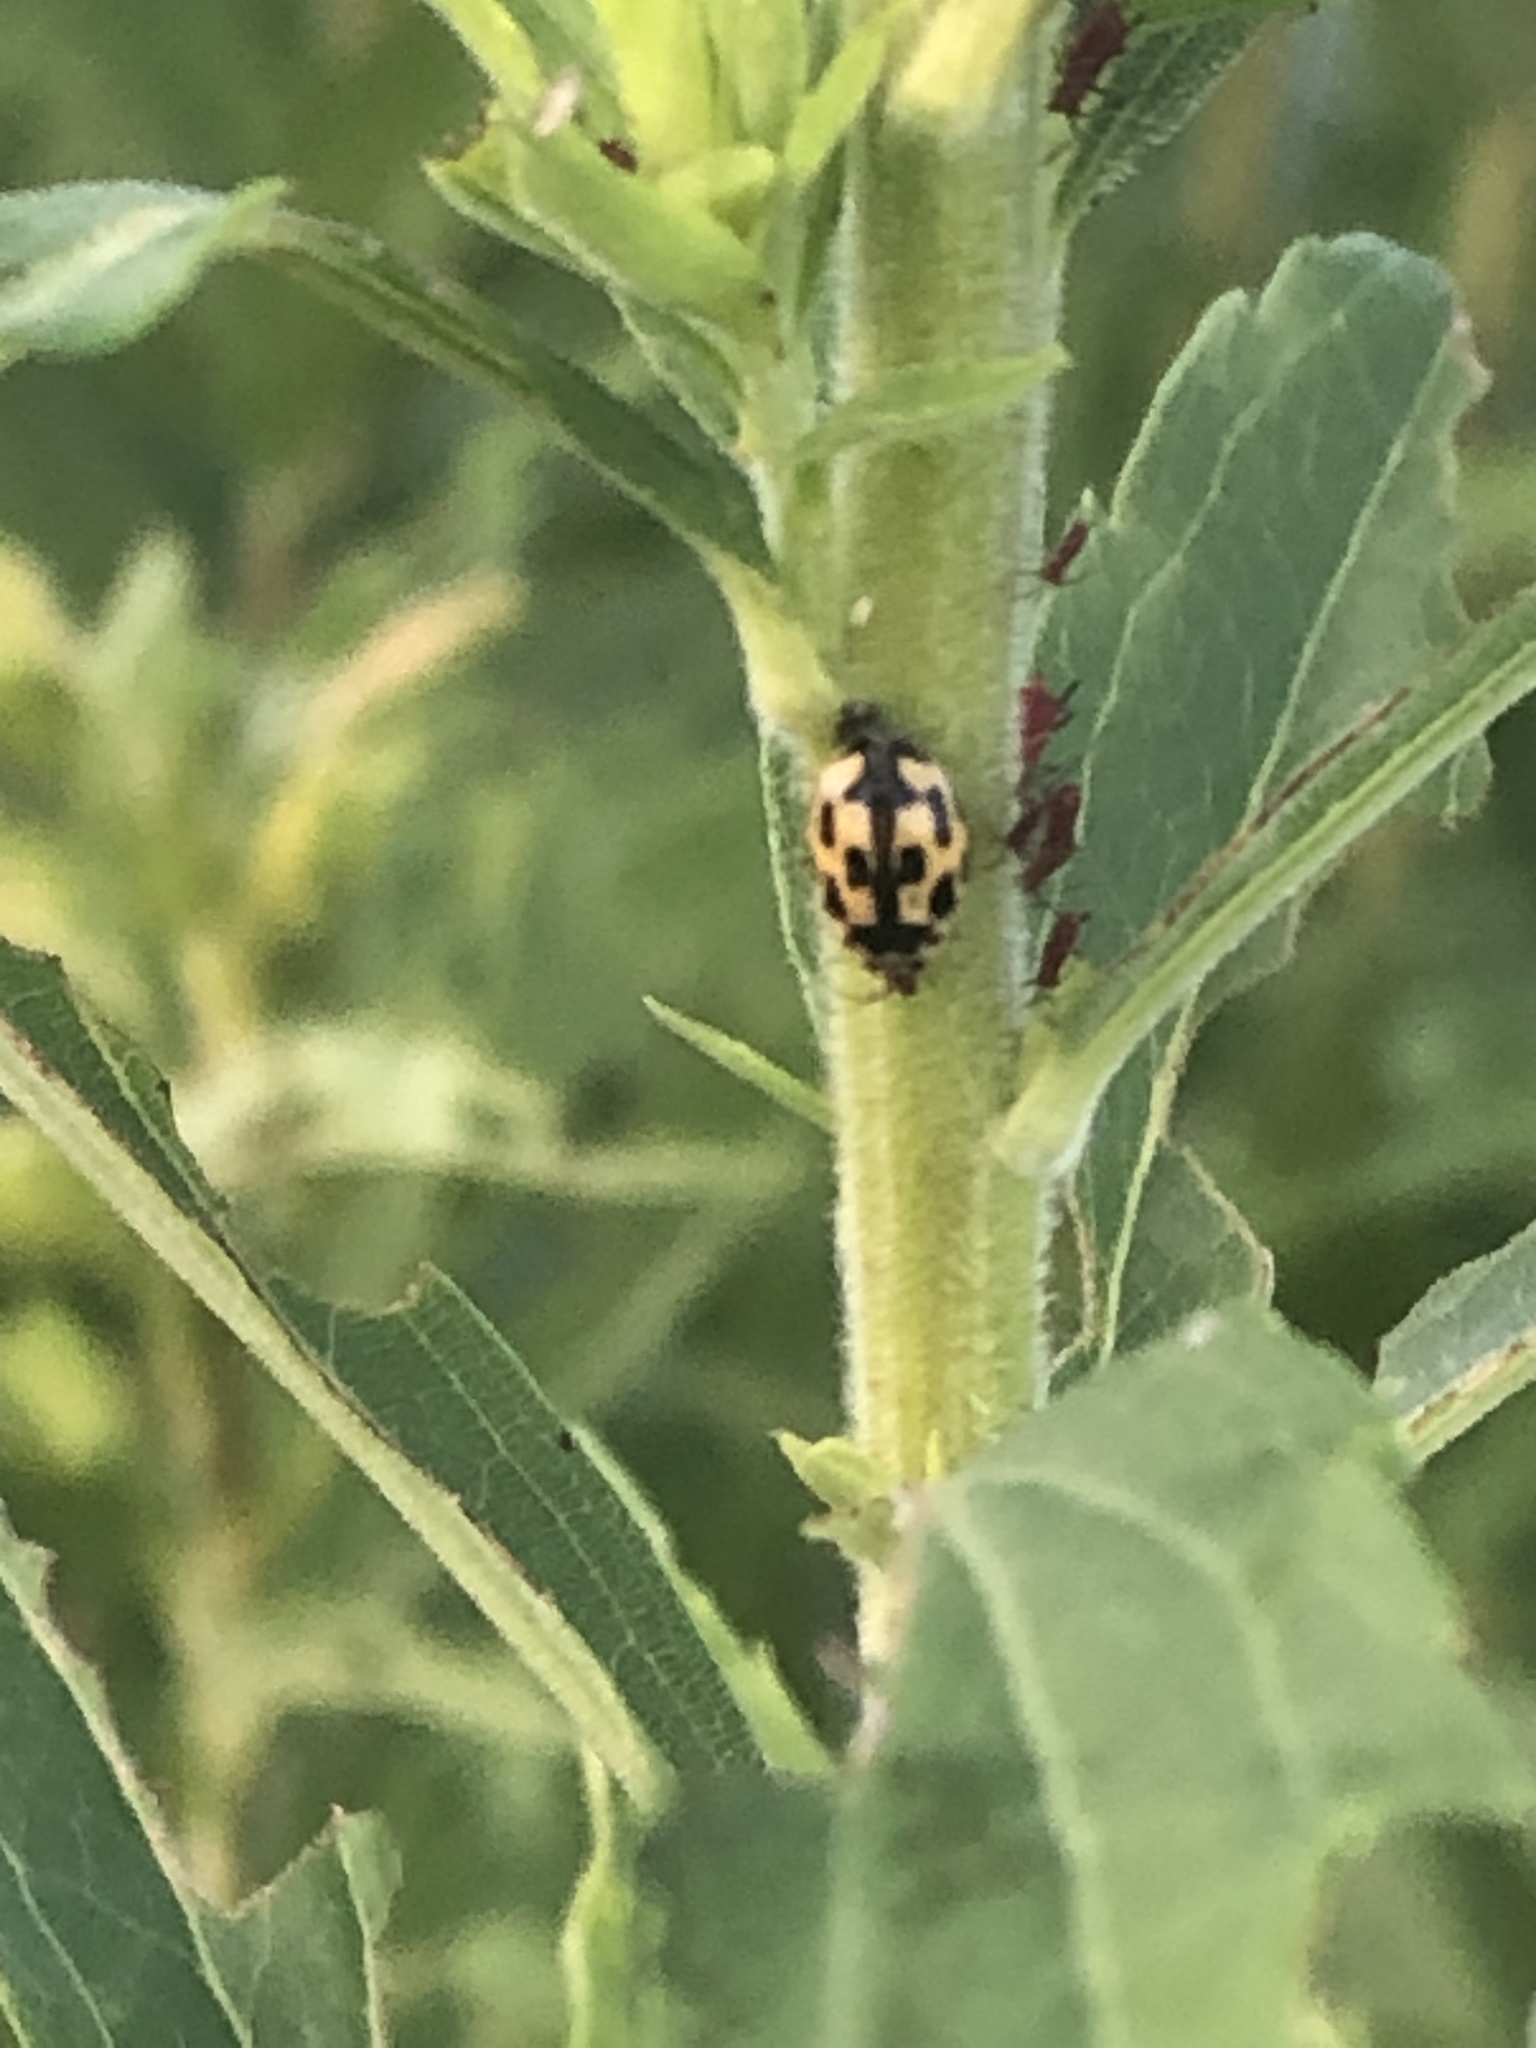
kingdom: Animalia
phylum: Arthropoda
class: Insecta
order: Coleoptera
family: Coccinellidae
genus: Propylaea
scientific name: Propylaea quatuordecimpunctata
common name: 14-spotted ladybird beetle
